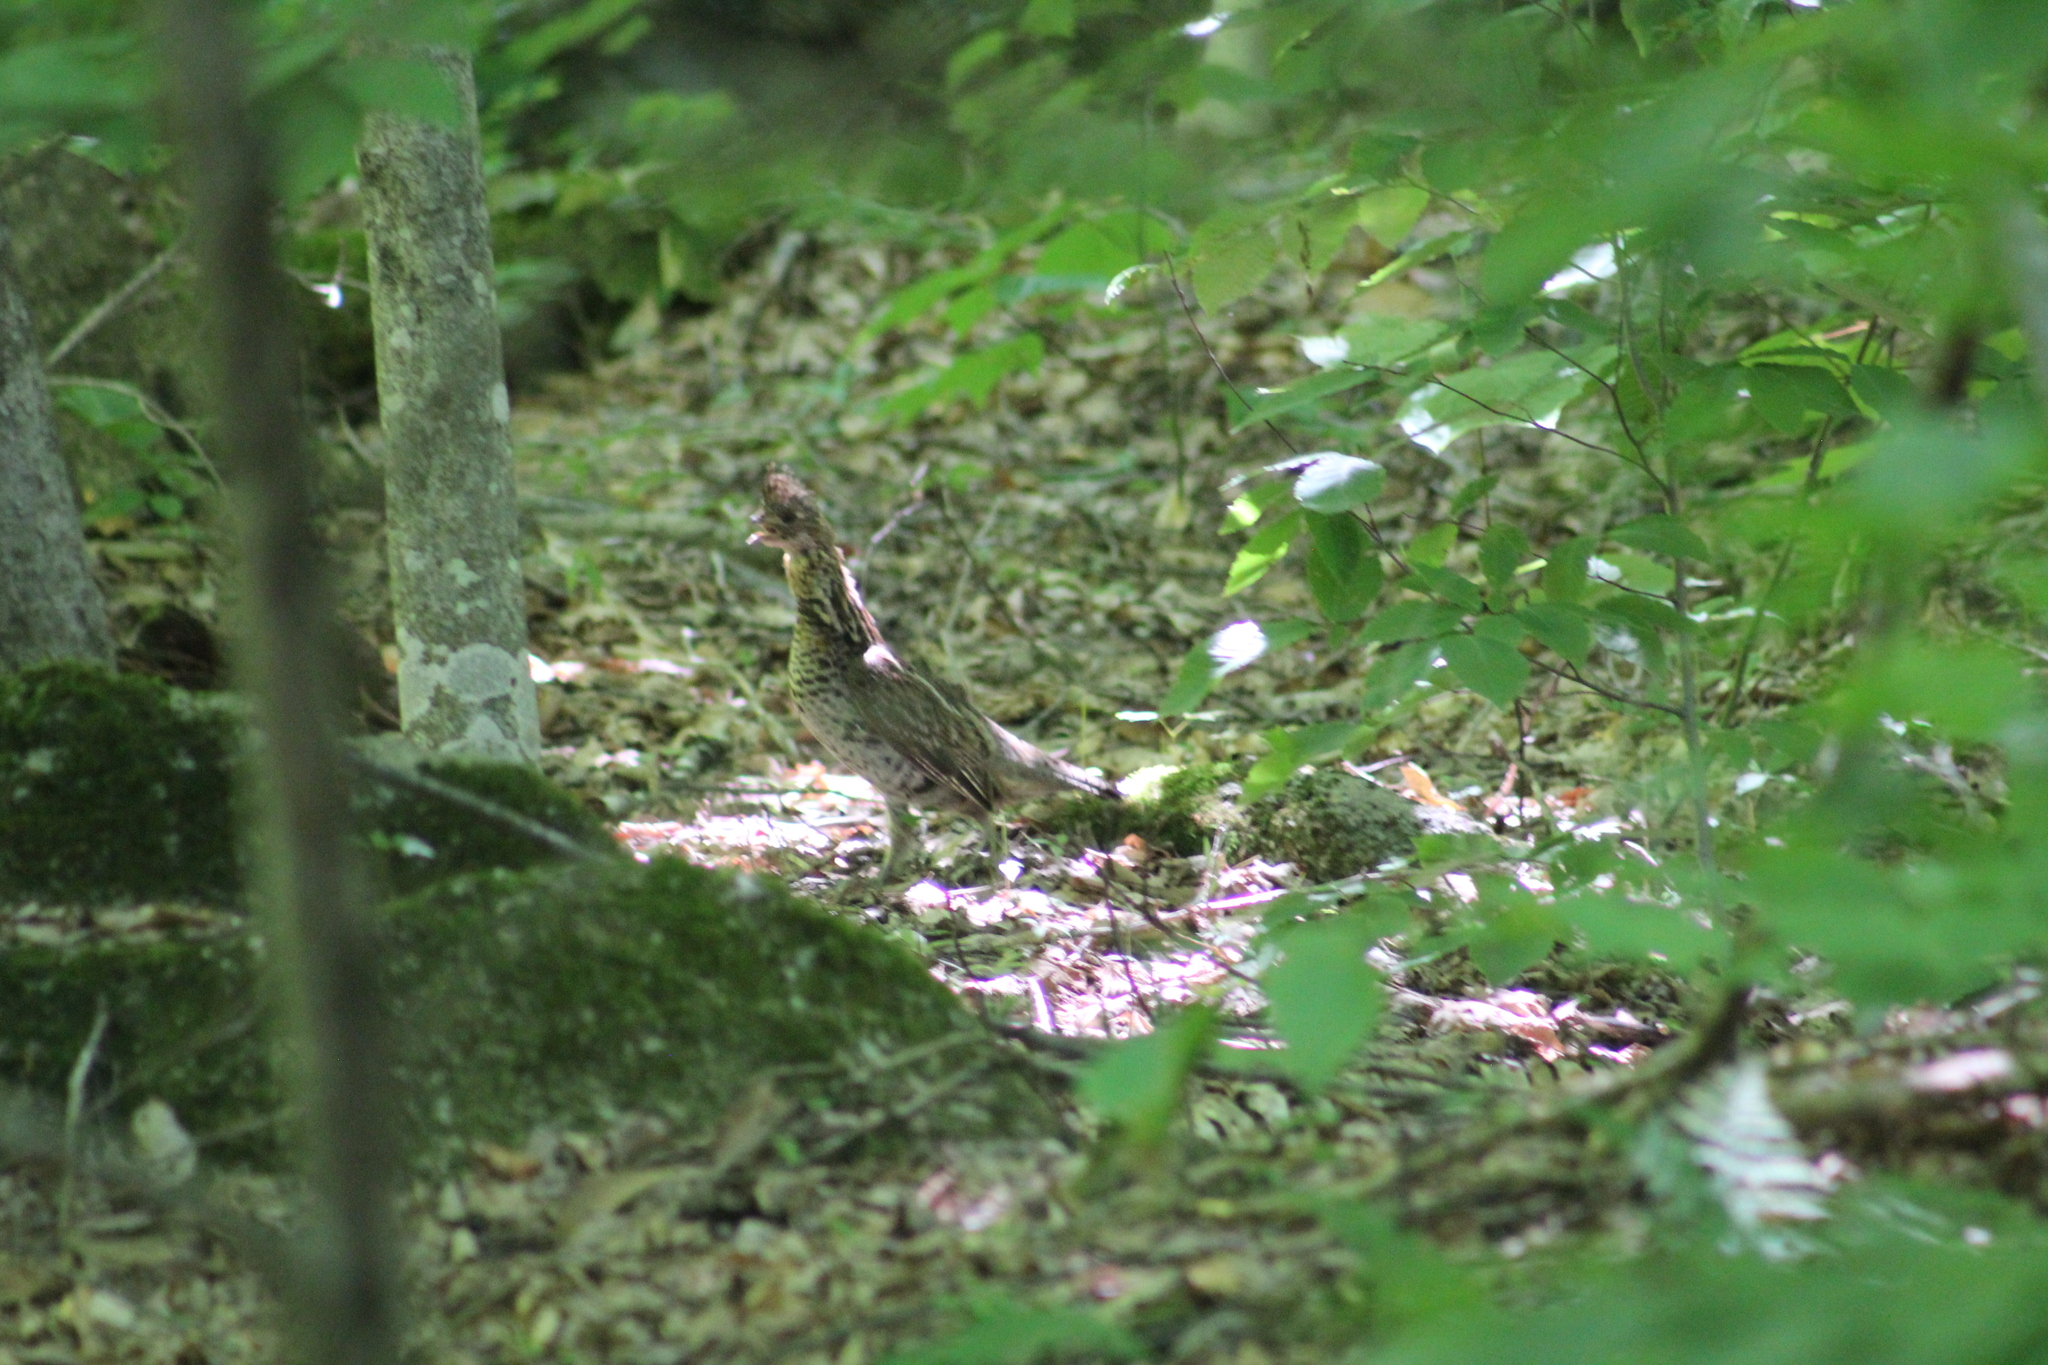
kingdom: Animalia
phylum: Chordata
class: Aves
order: Galliformes
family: Phasianidae
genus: Bonasa
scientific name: Bonasa umbellus
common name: Ruffed grouse
